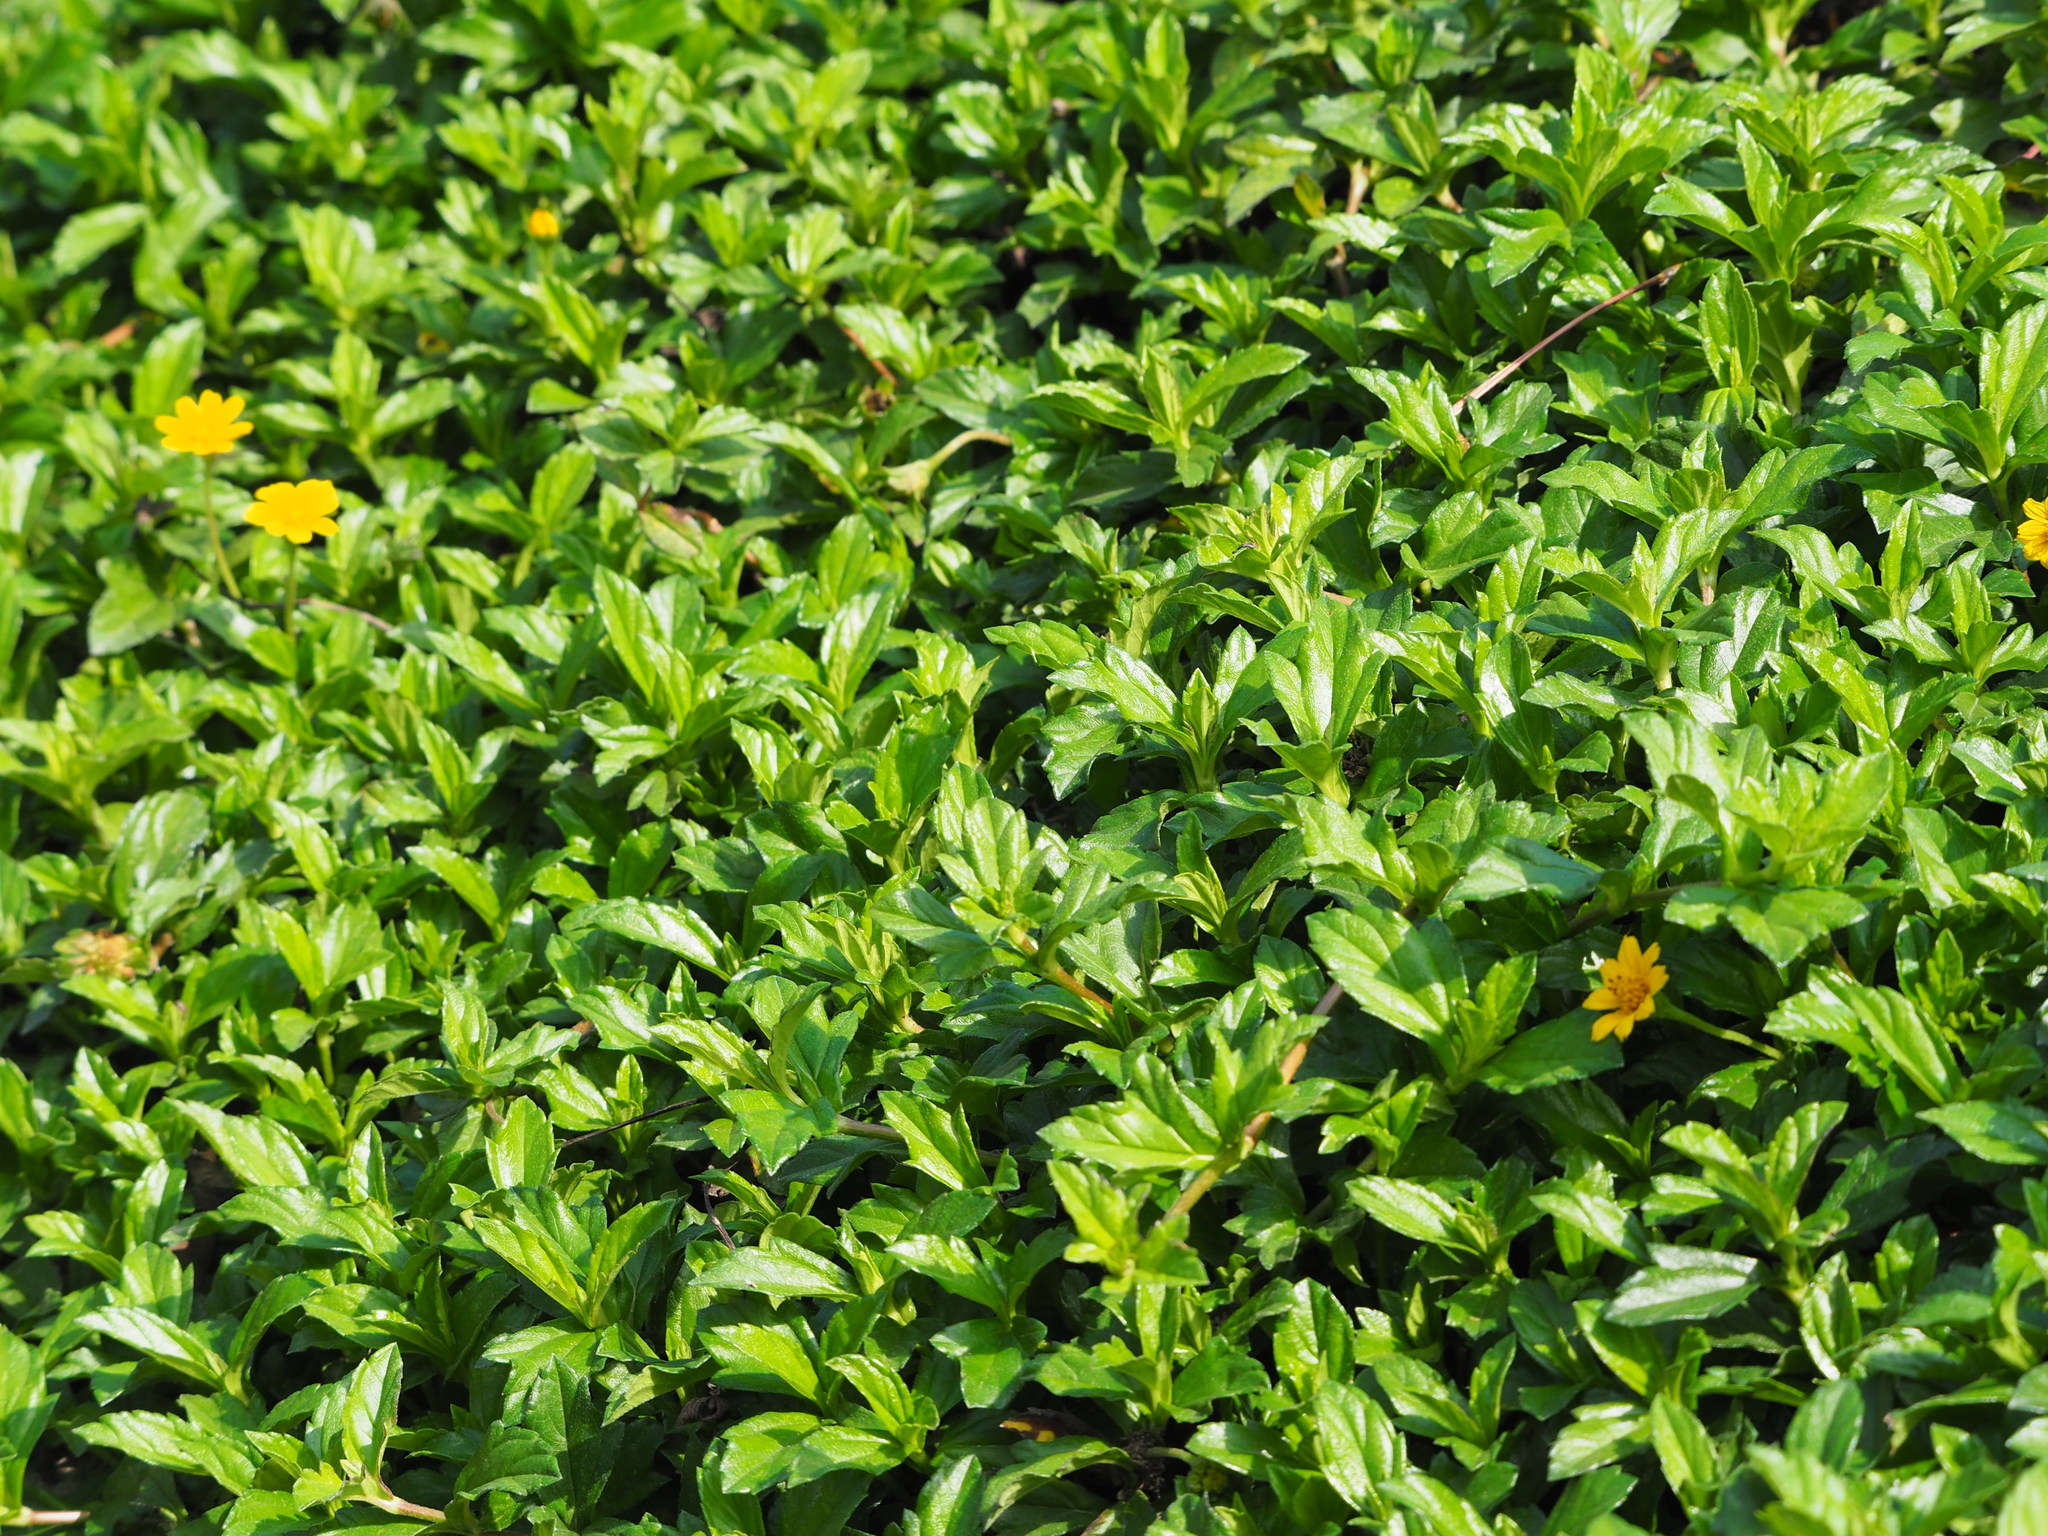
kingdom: Plantae
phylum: Tracheophyta
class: Magnoliopsida
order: Asterales
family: Asteraceae
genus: Sphagneticola
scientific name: Sphagneticola trilobata
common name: Bay biscayne creeping-oxeye
